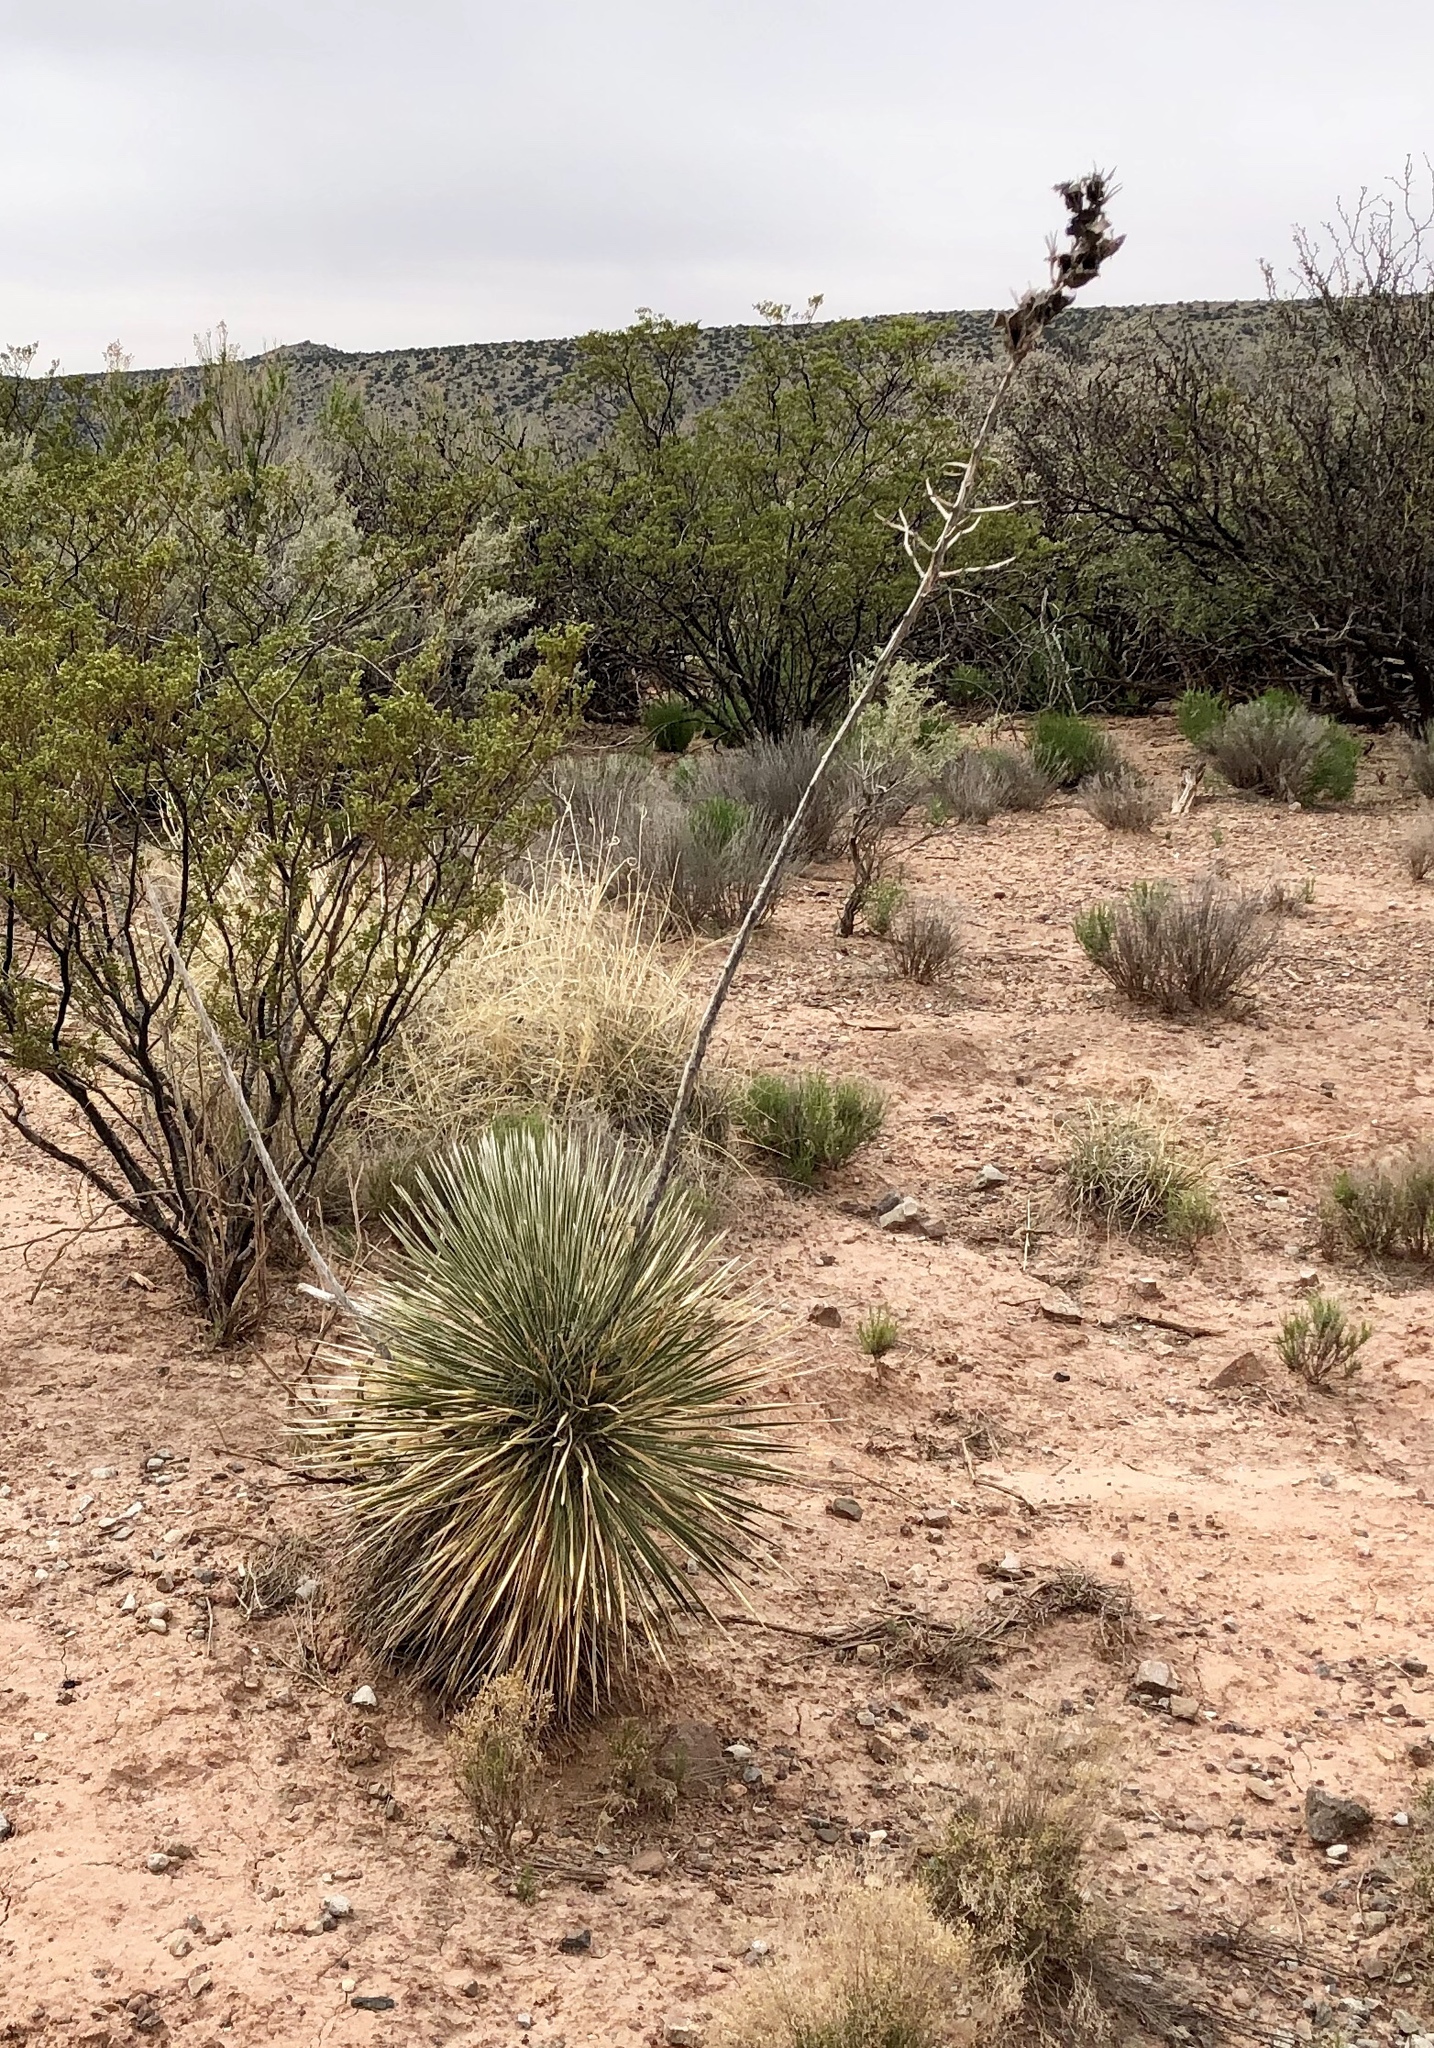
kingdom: Plantae
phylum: Tracheophyta
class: Liliopsida
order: Asparagales
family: Asparagaceae
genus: Yucca
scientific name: Yucca elata
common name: Palmella
